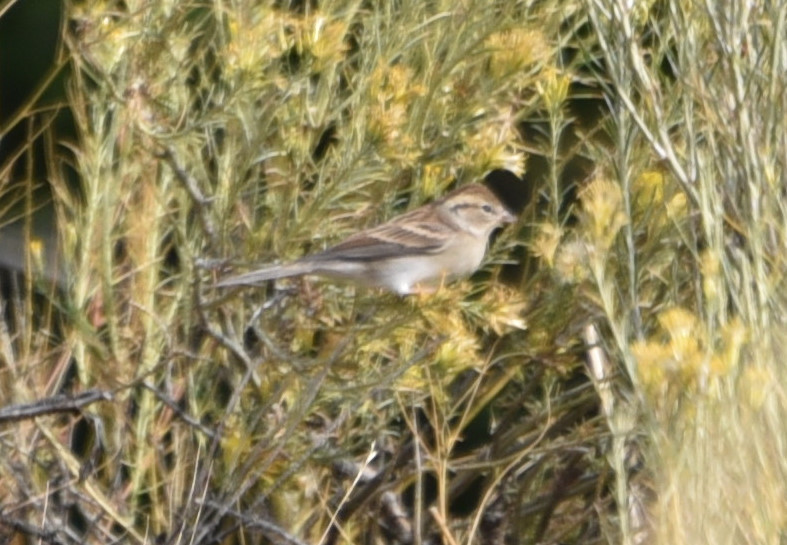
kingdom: Animalia
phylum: Chordata
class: Aves
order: Passeriformes
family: Passerellidae
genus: Spizella
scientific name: Spizella passerina
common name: Chipping sparrow
